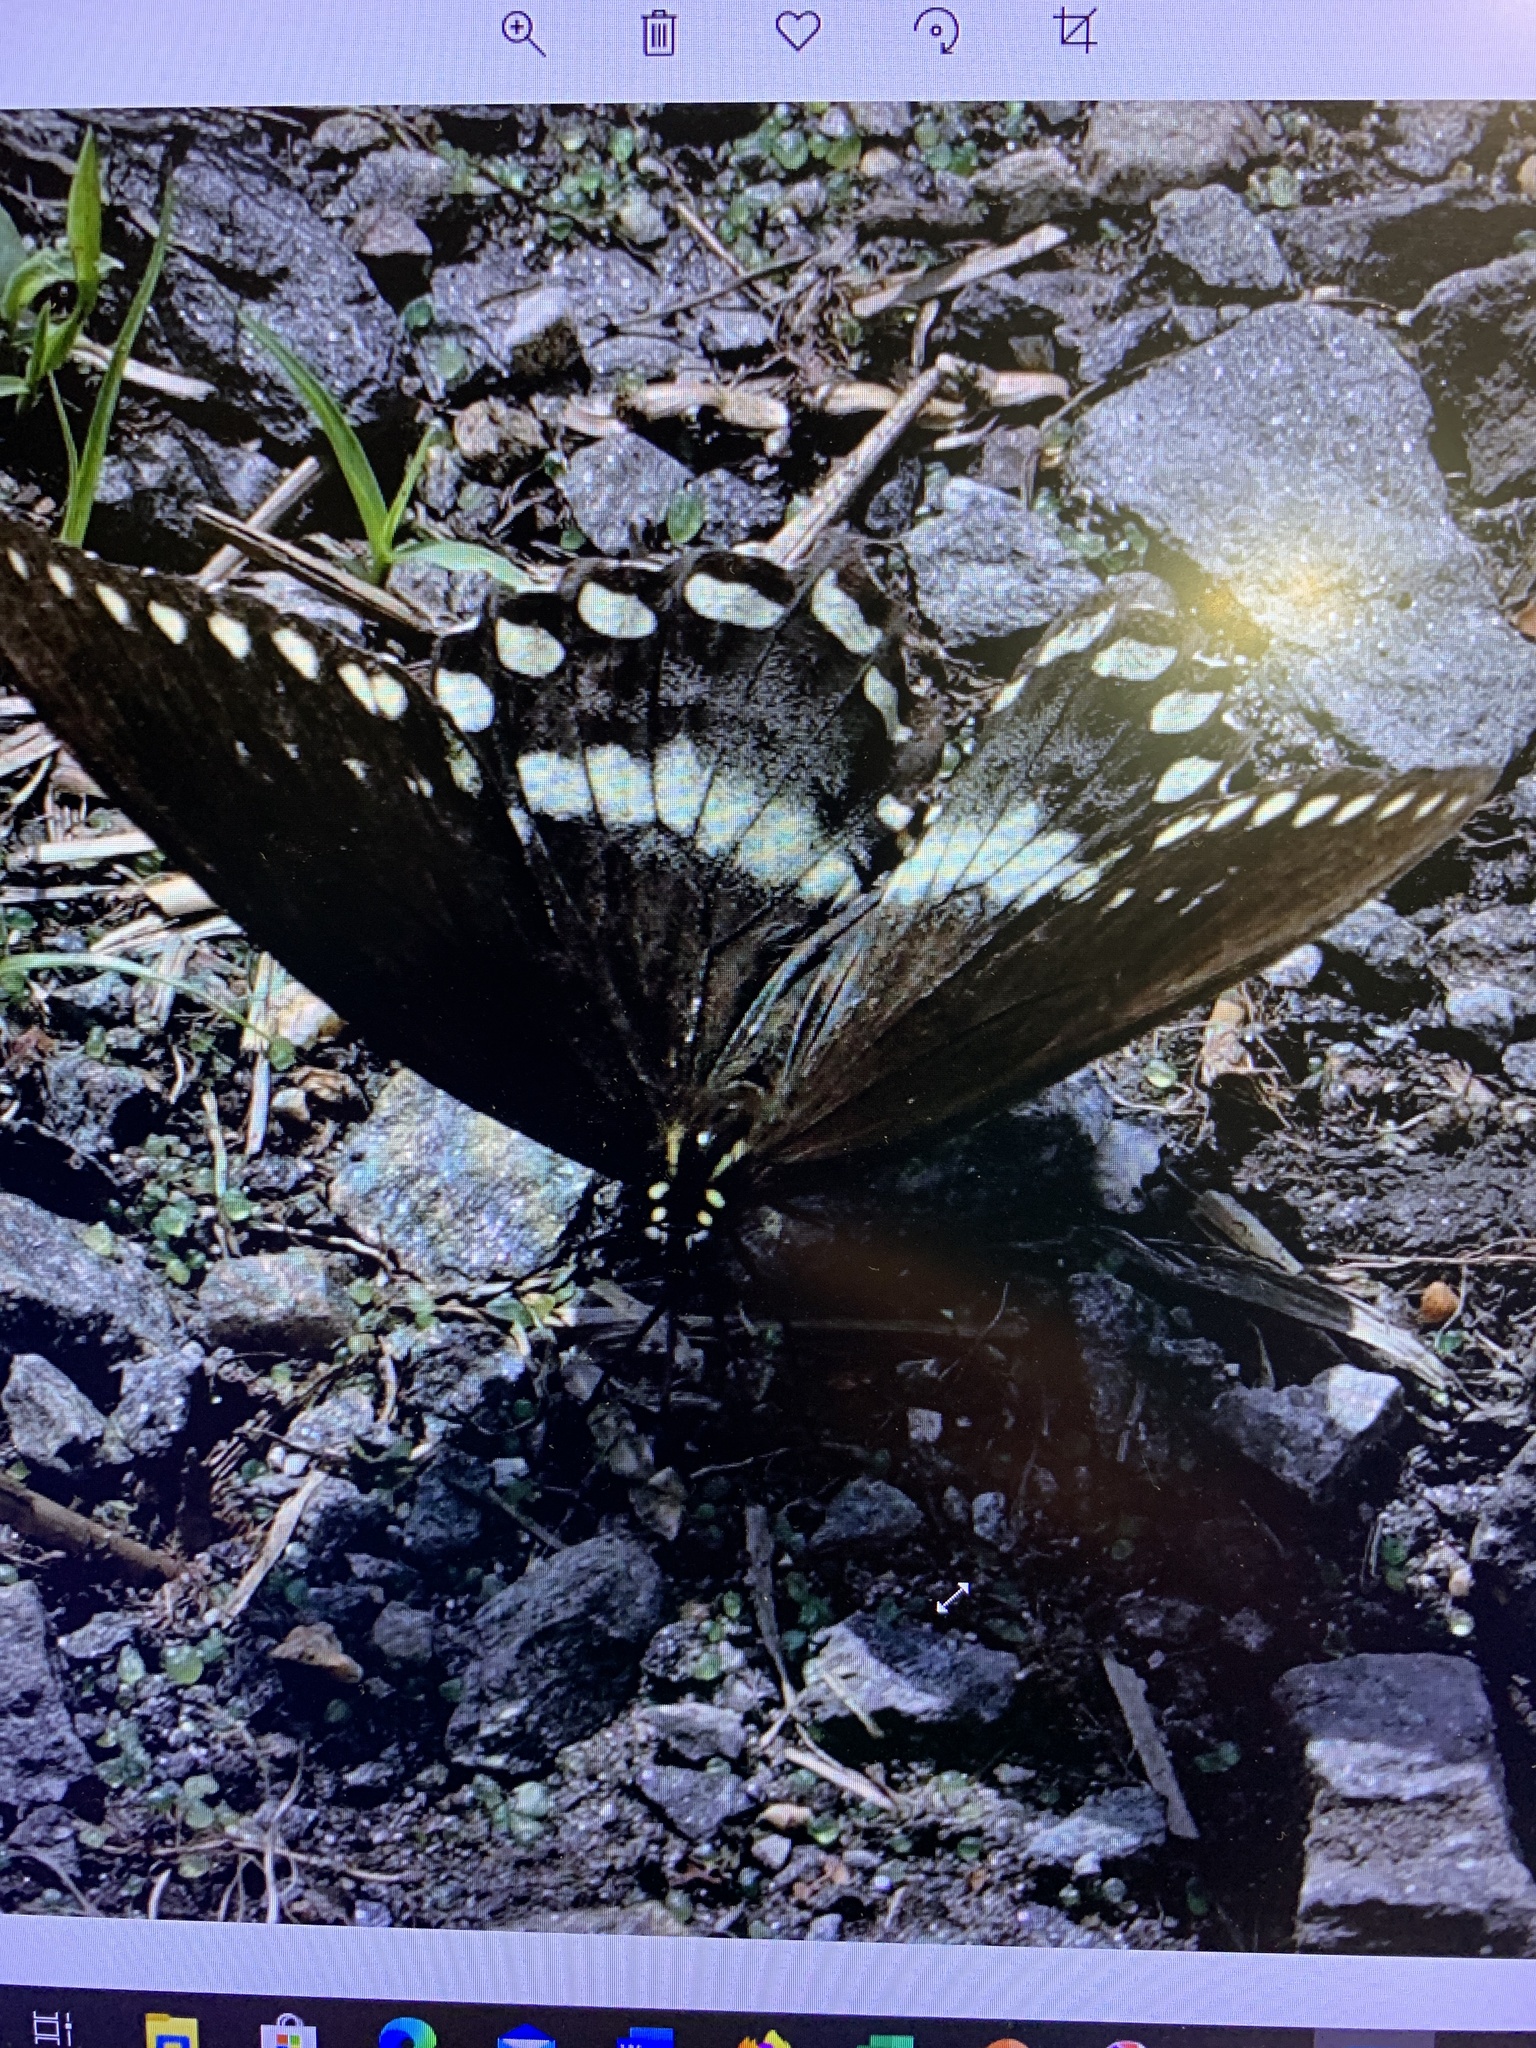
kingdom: Animalia
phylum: Arthropoda
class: Insecta
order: Lepidoptera
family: Papilionidae
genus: Papilio
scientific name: Papilio troilus
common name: Spicebush swallowtail
